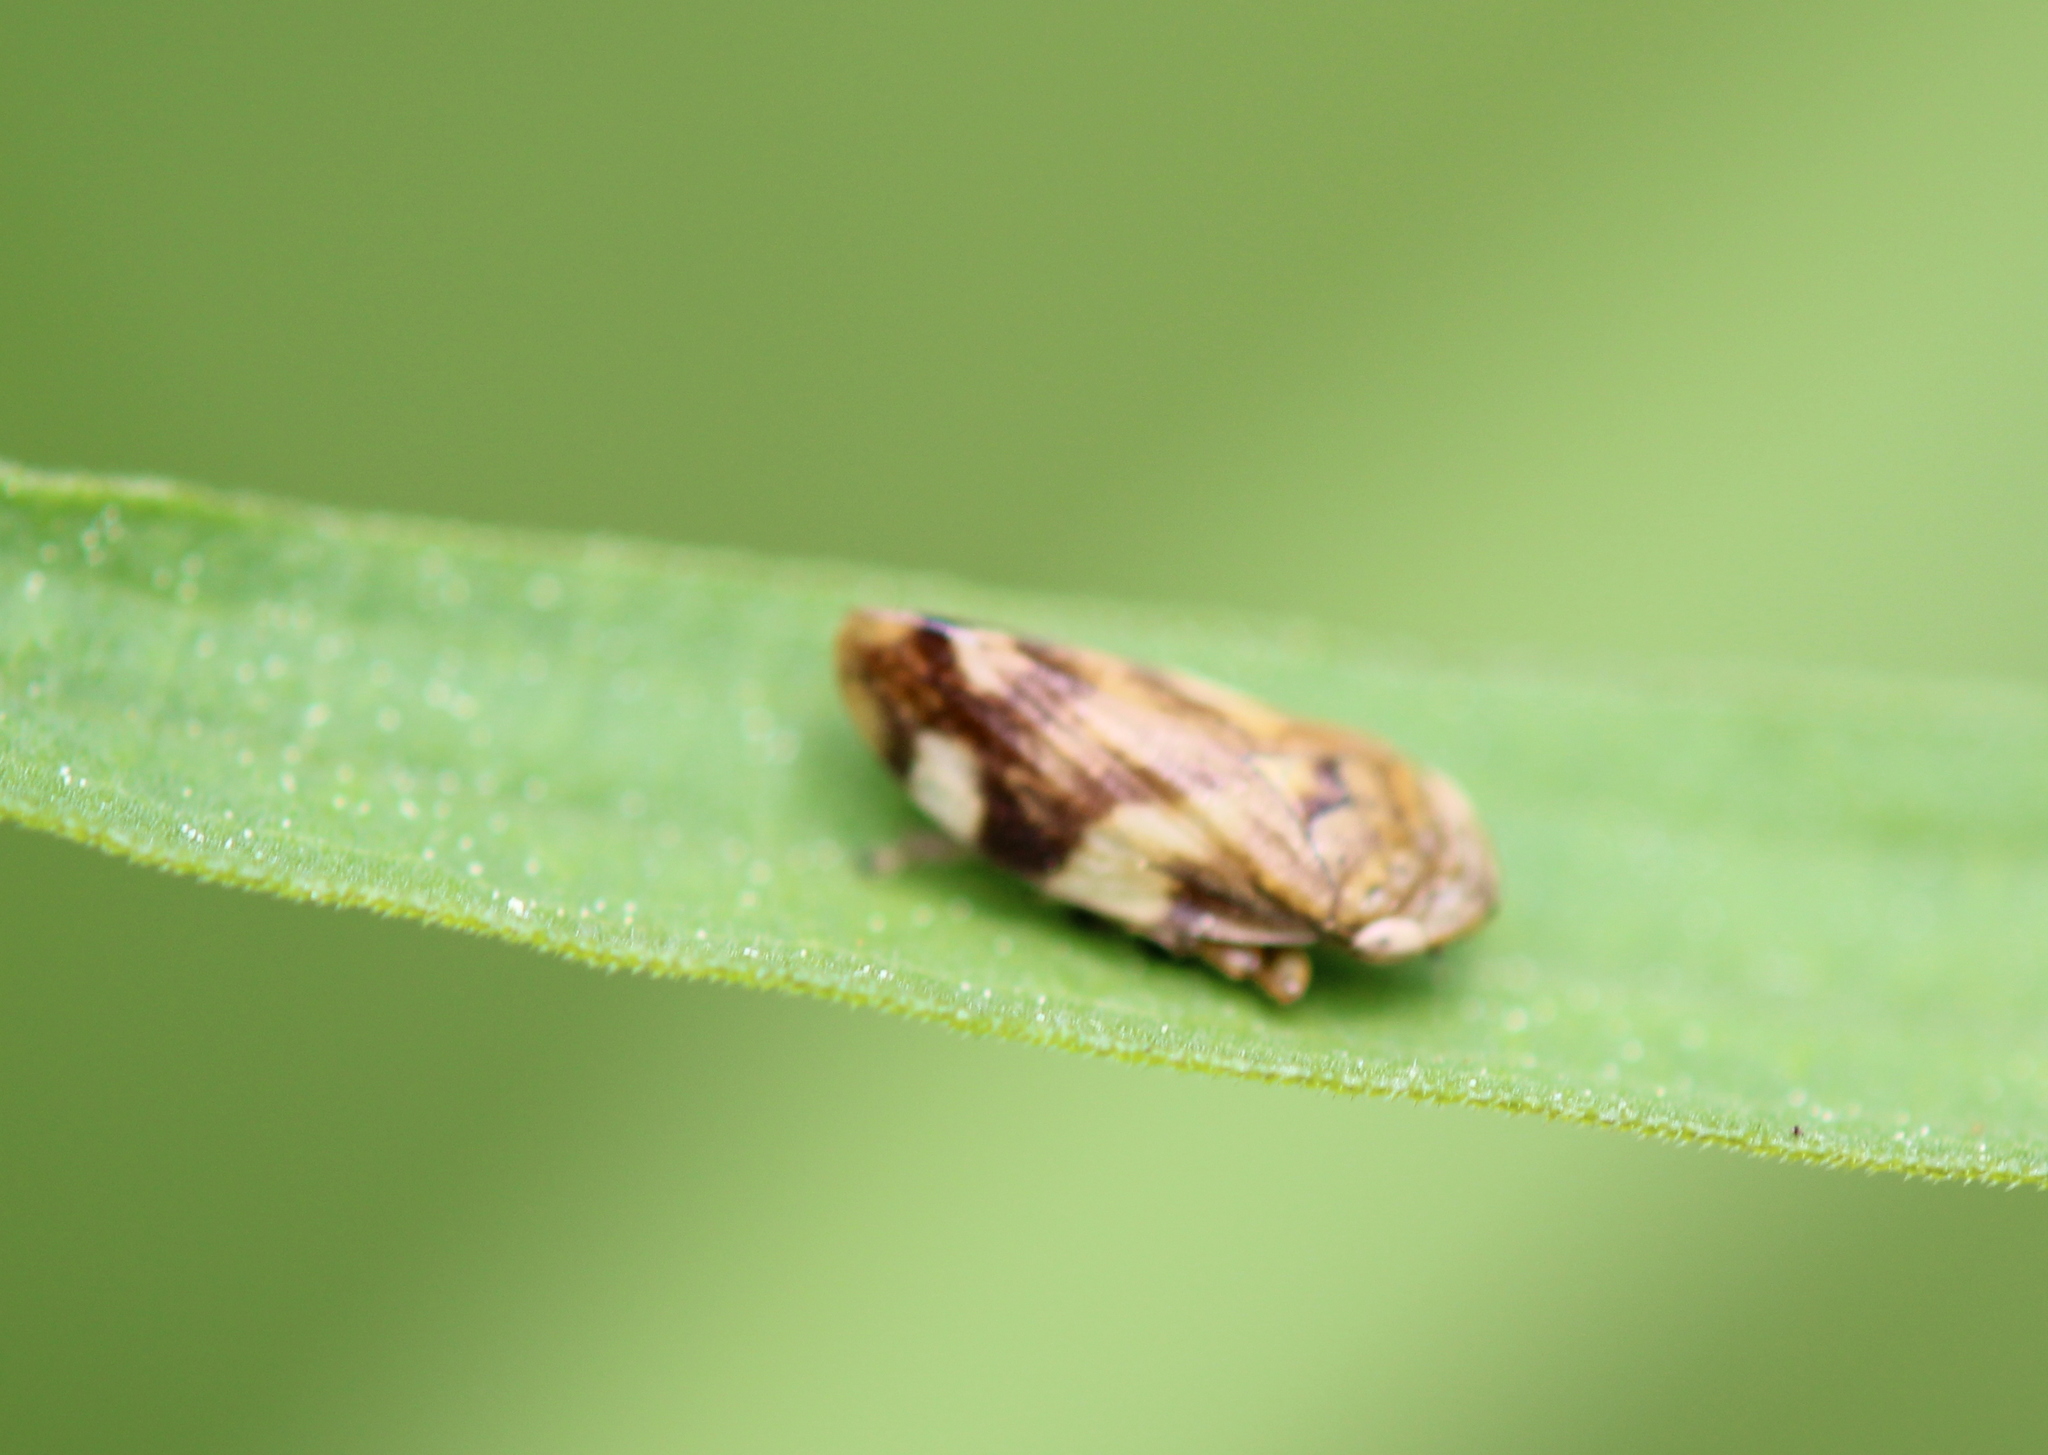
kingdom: Animalia
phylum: Arthropoda
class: Insecta
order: Hemiptera
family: Aphrophoridae
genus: Philaenus
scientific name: Philaenus spumarius
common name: Meadow spittlebug
